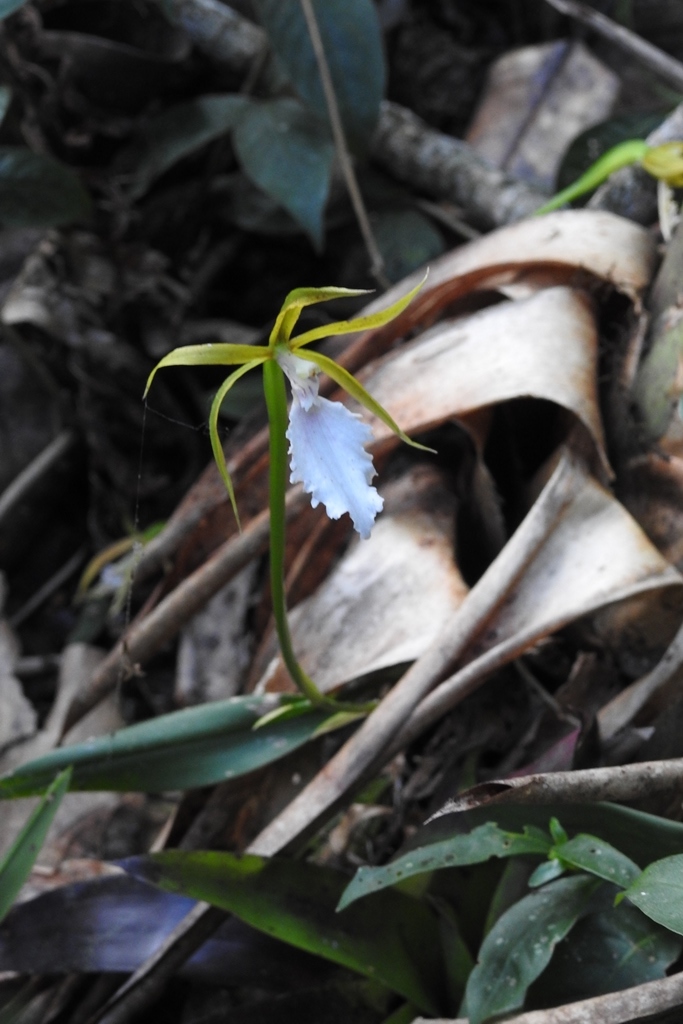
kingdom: Plantae
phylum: Tracheophyta
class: Liliopsida
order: Asparagales
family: Orchidaceae
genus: Rhynchostele
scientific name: Rhynchostele stellata
